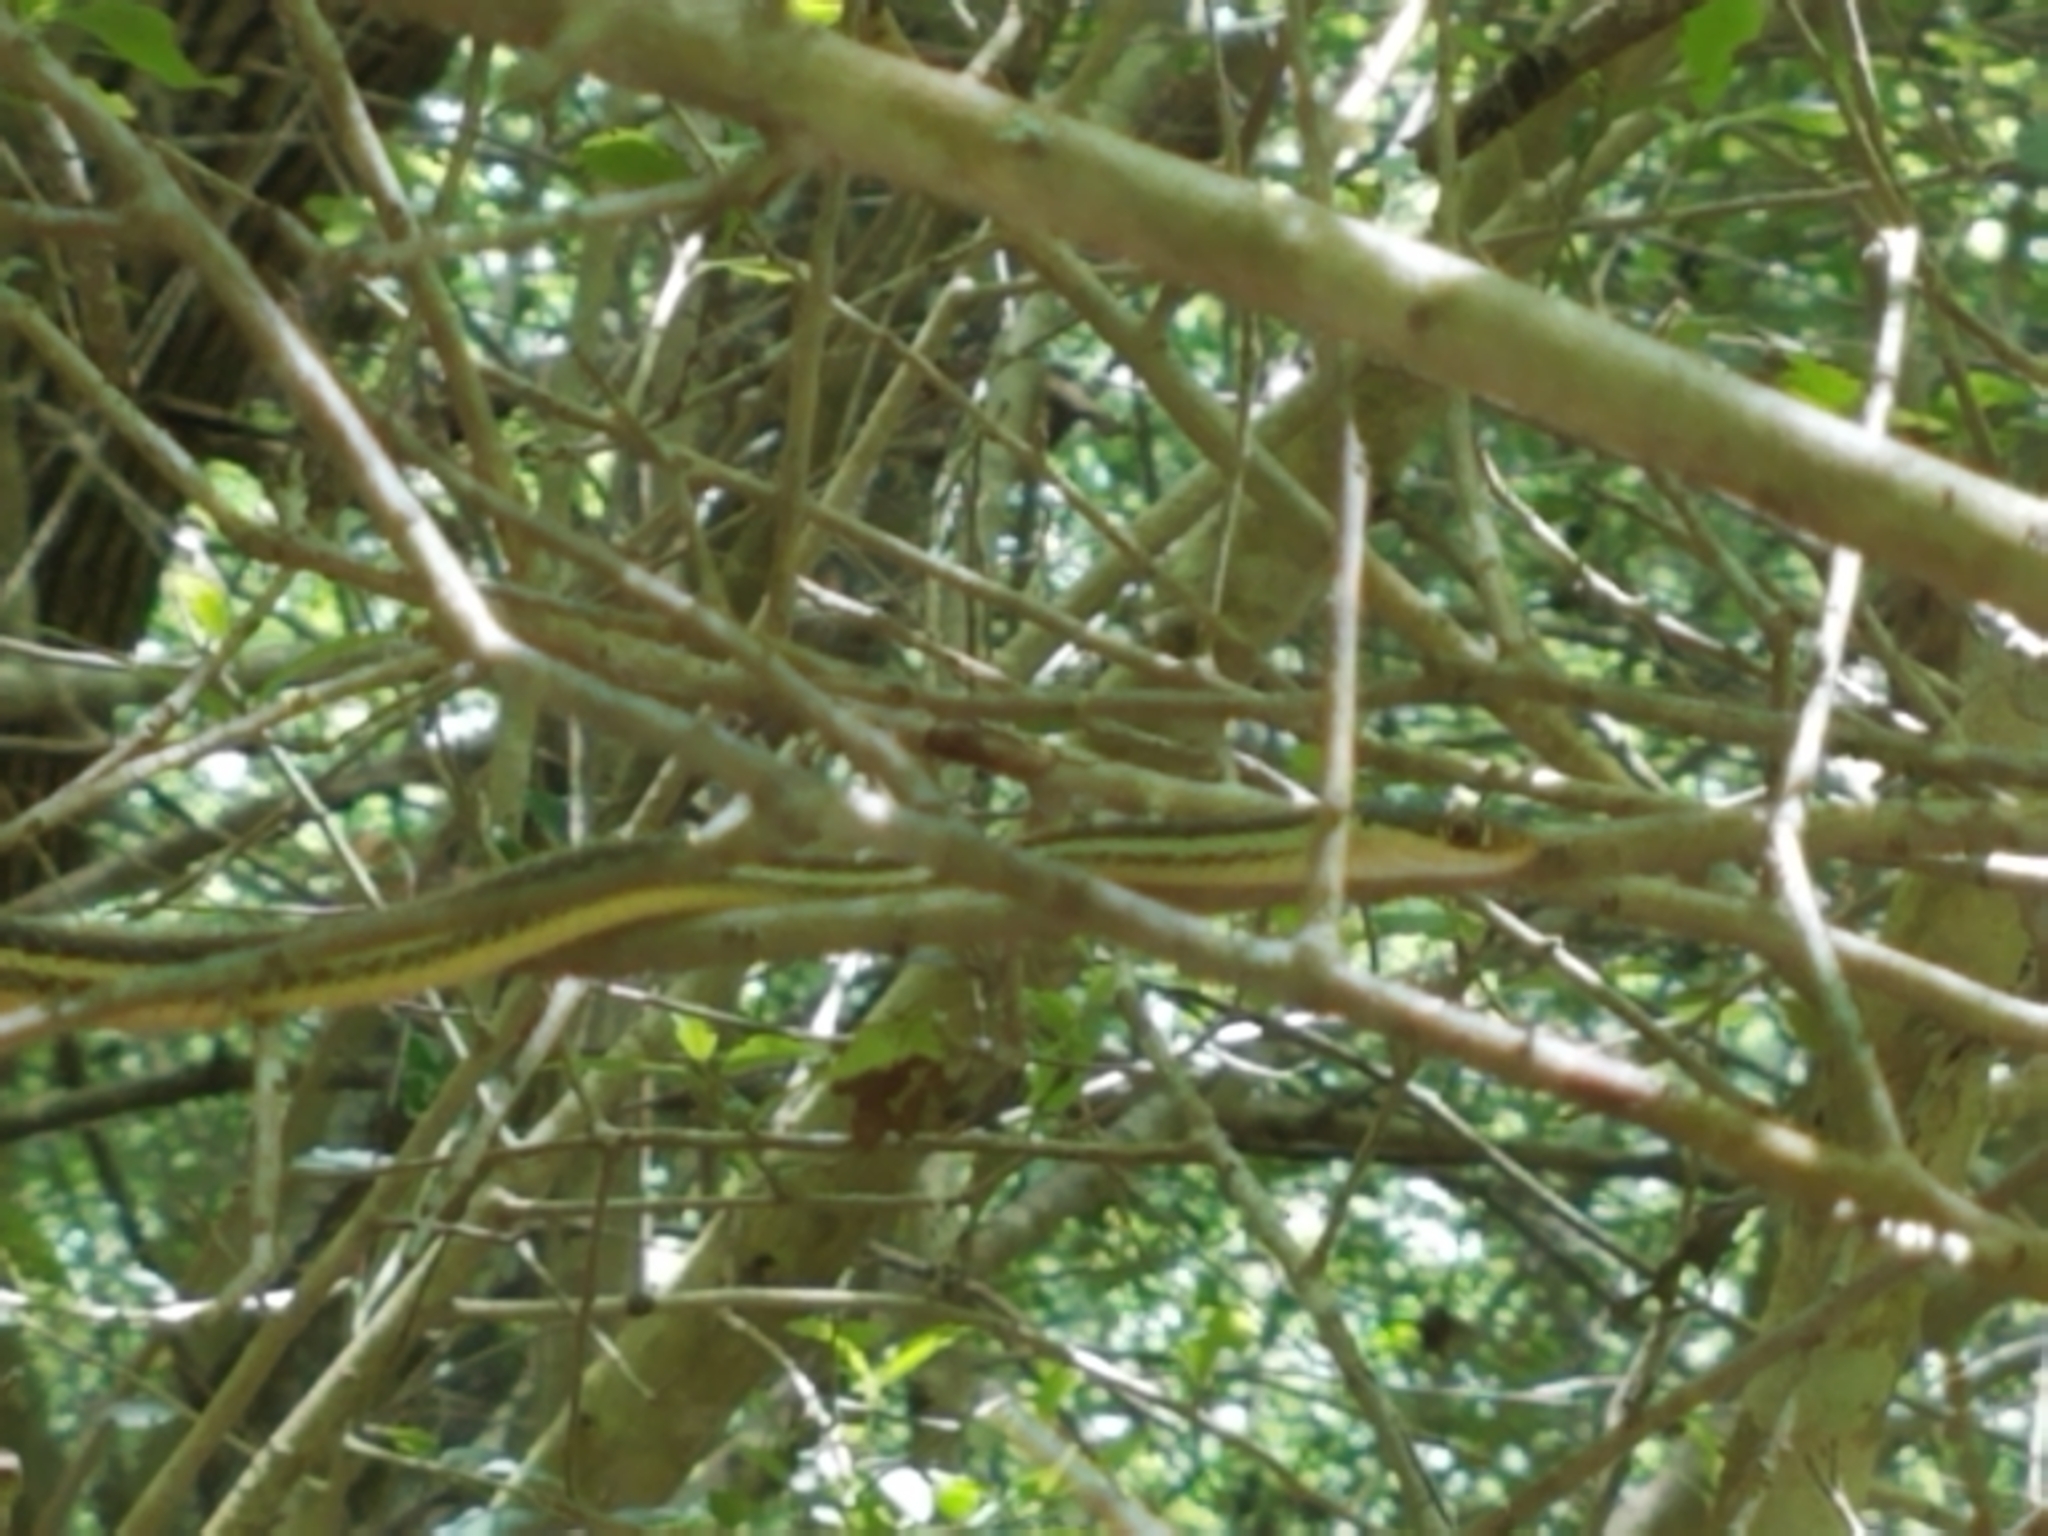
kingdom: Animalia
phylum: Chordata
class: Squamata
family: Colubridae
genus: Thamnophis
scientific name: Thamnophis proximus
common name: Western ribbon snake
